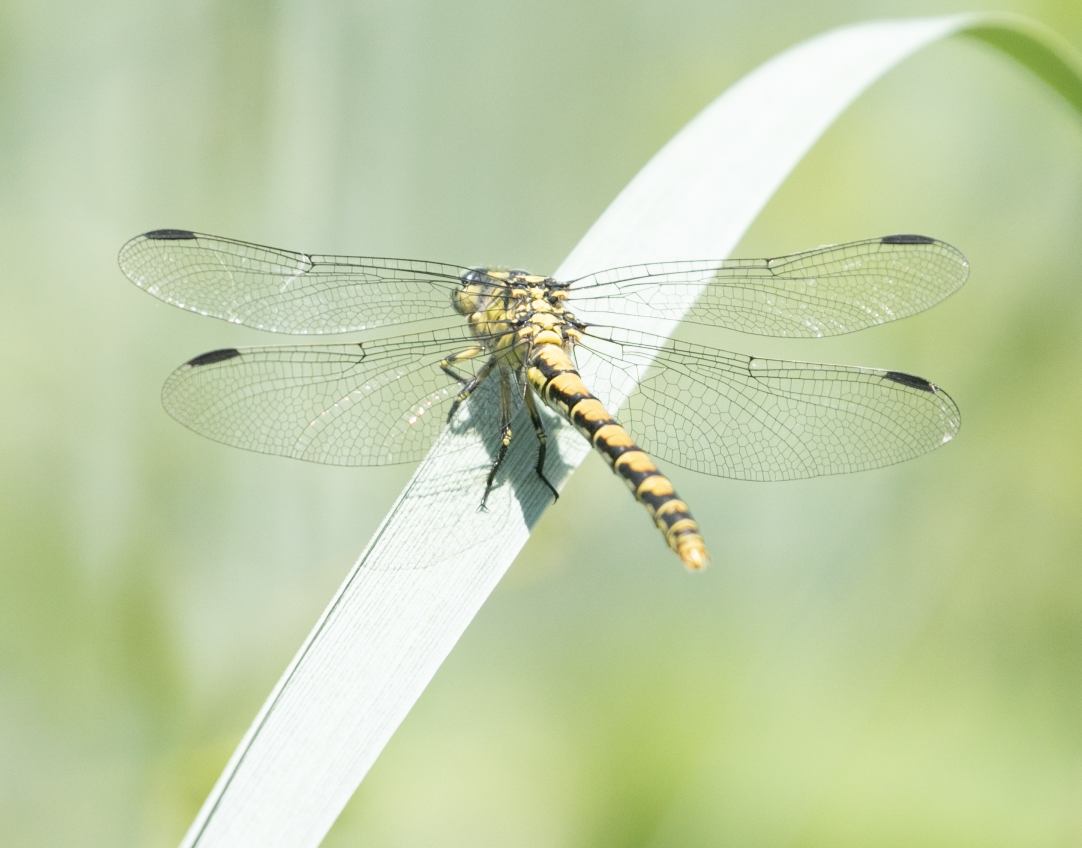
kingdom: Animalia
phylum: Arthropoda
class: Insecta
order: Odonata
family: Gomphidae
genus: Onychogomphus
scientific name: Onychogomphus forcipatus
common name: Small pincertail
